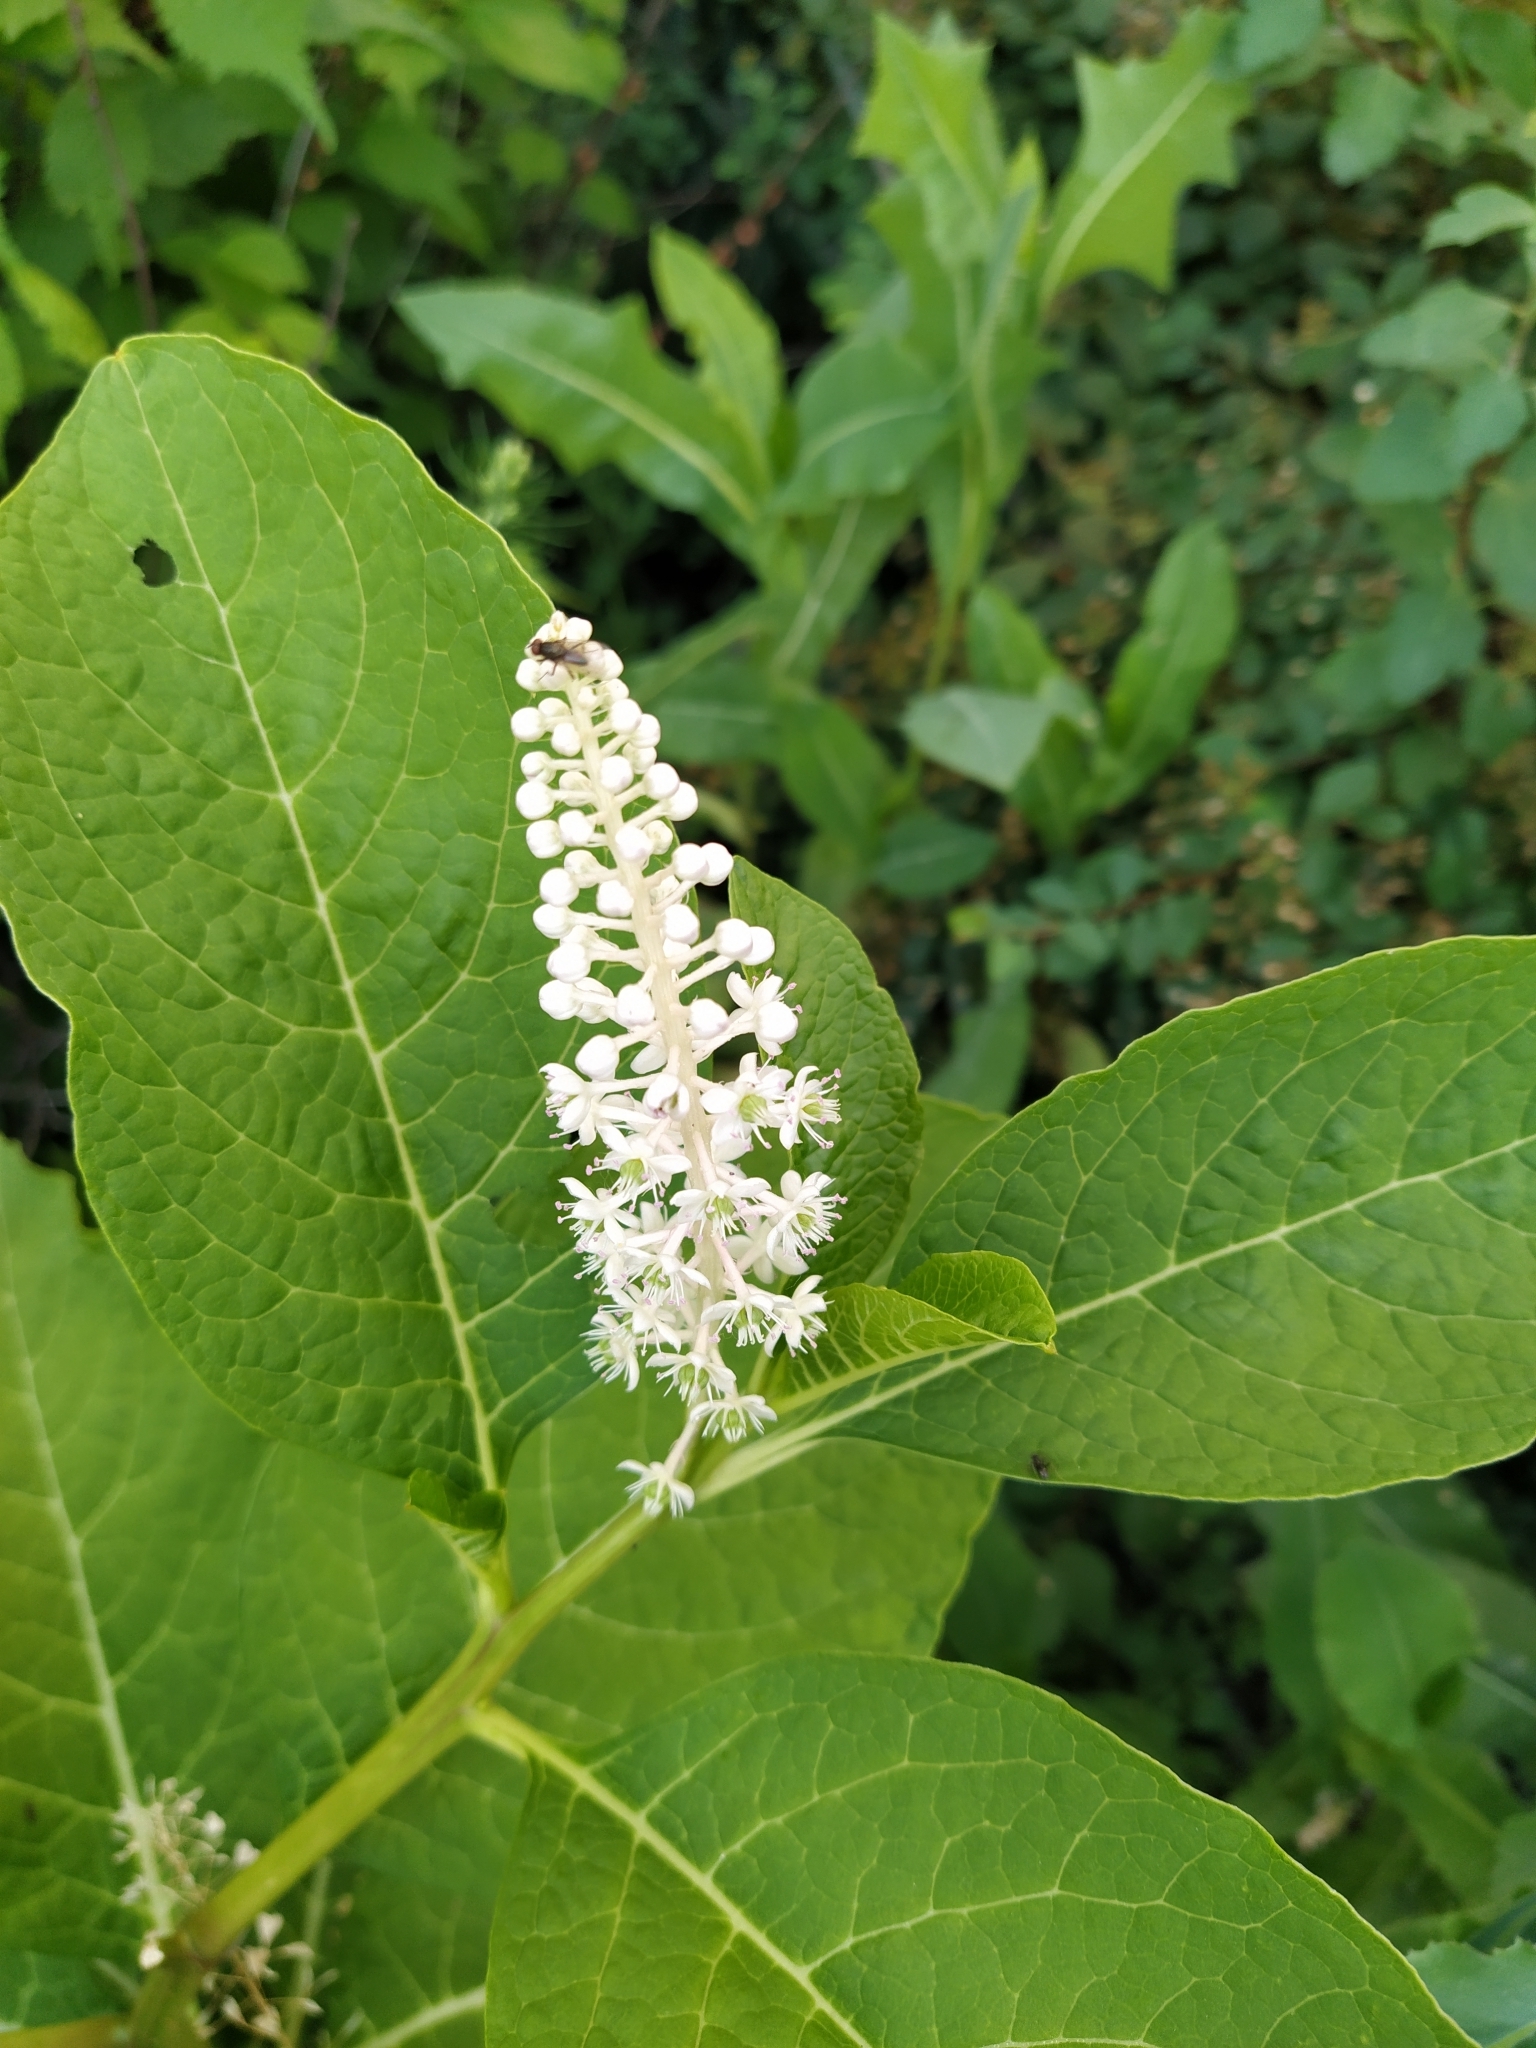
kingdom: Plantae
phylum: Tracheophyta
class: Magnoliopsida
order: Caryophyllales
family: Phytolaccaceae
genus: Phytolacca
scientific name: Phytolacca acinosa
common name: Indian pokeweed
